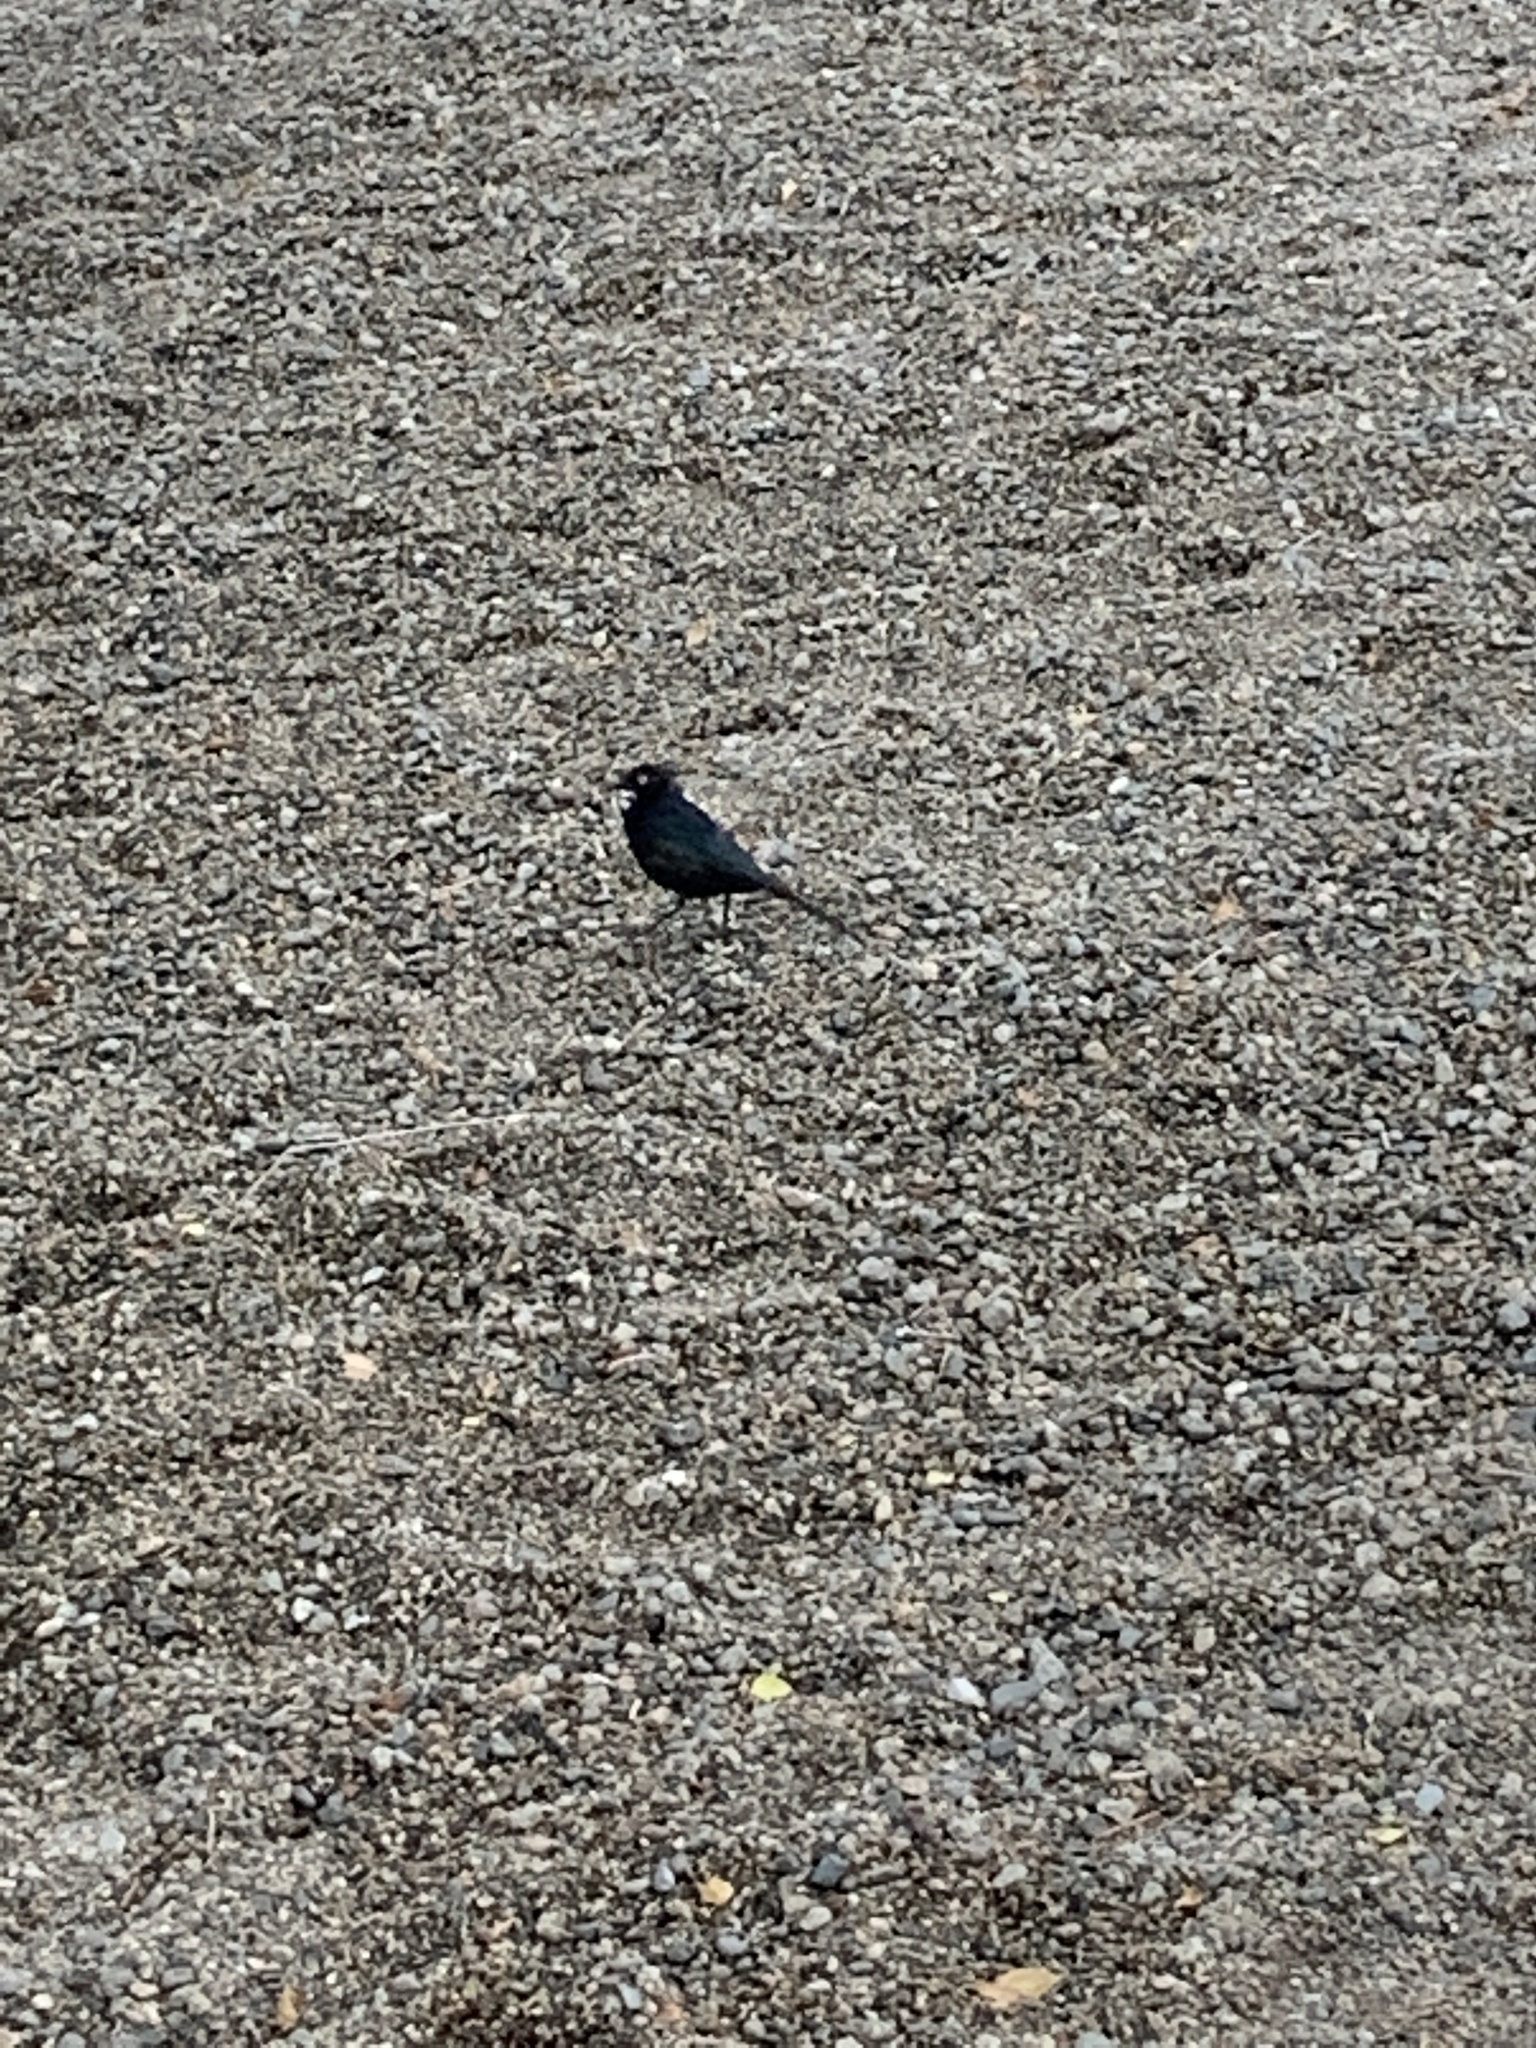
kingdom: Animalia
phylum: Chordata
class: Aves
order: Passeriformes
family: Icteridae
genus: Euphagus
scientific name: Euphagus cyanocephalus
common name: Brewer's blackbird
